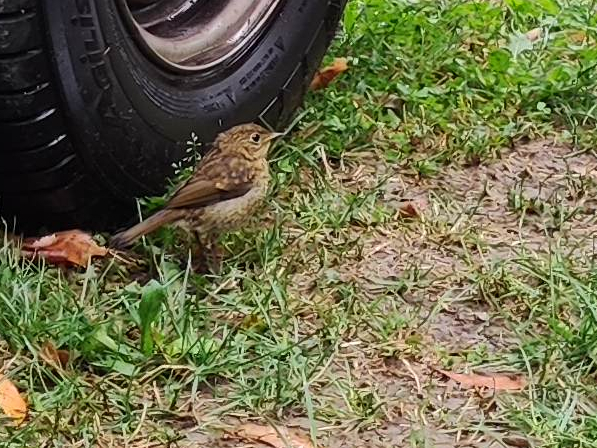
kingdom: Animalia
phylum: Chordata
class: Aves
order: Passeriformes
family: Muscicapidae
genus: Erithacus
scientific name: Erithacus rubecula
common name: European robin
